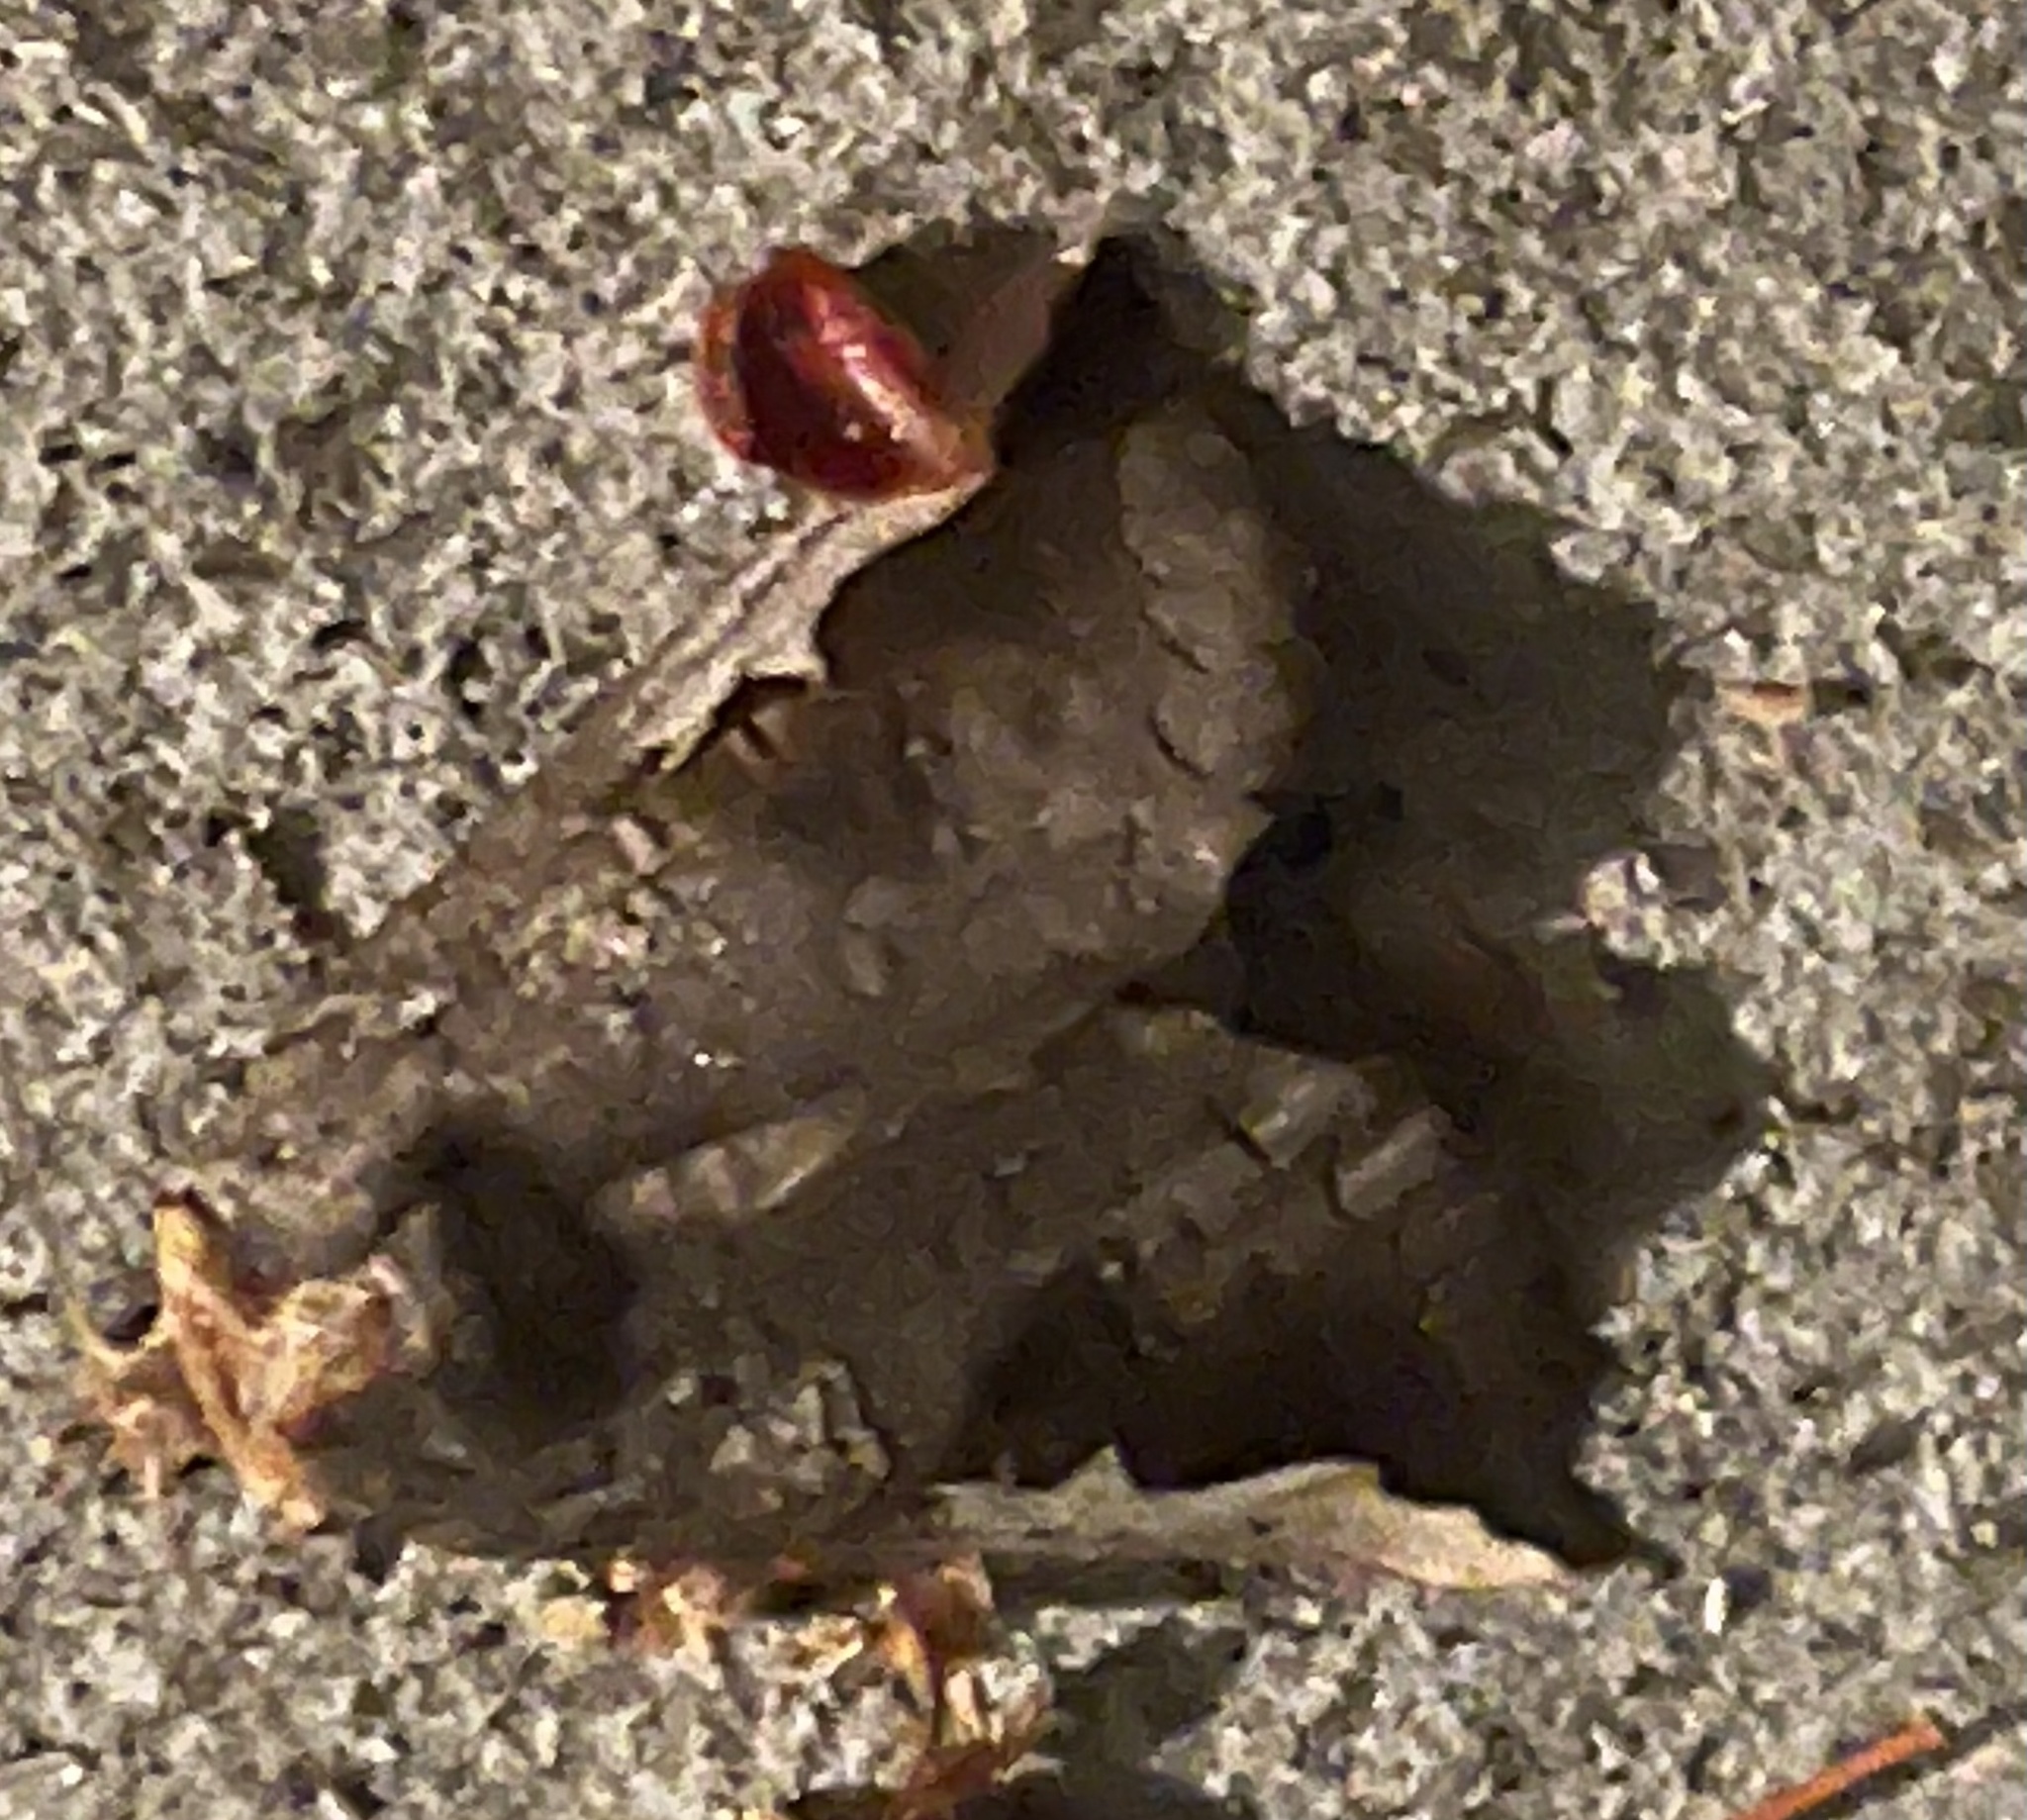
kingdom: Animalia
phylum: Arthropoda
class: Insecta
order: Lepidoptera
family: Notodontidae
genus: Symmerista
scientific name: Symmerista albifrons
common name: White-headed prominent
